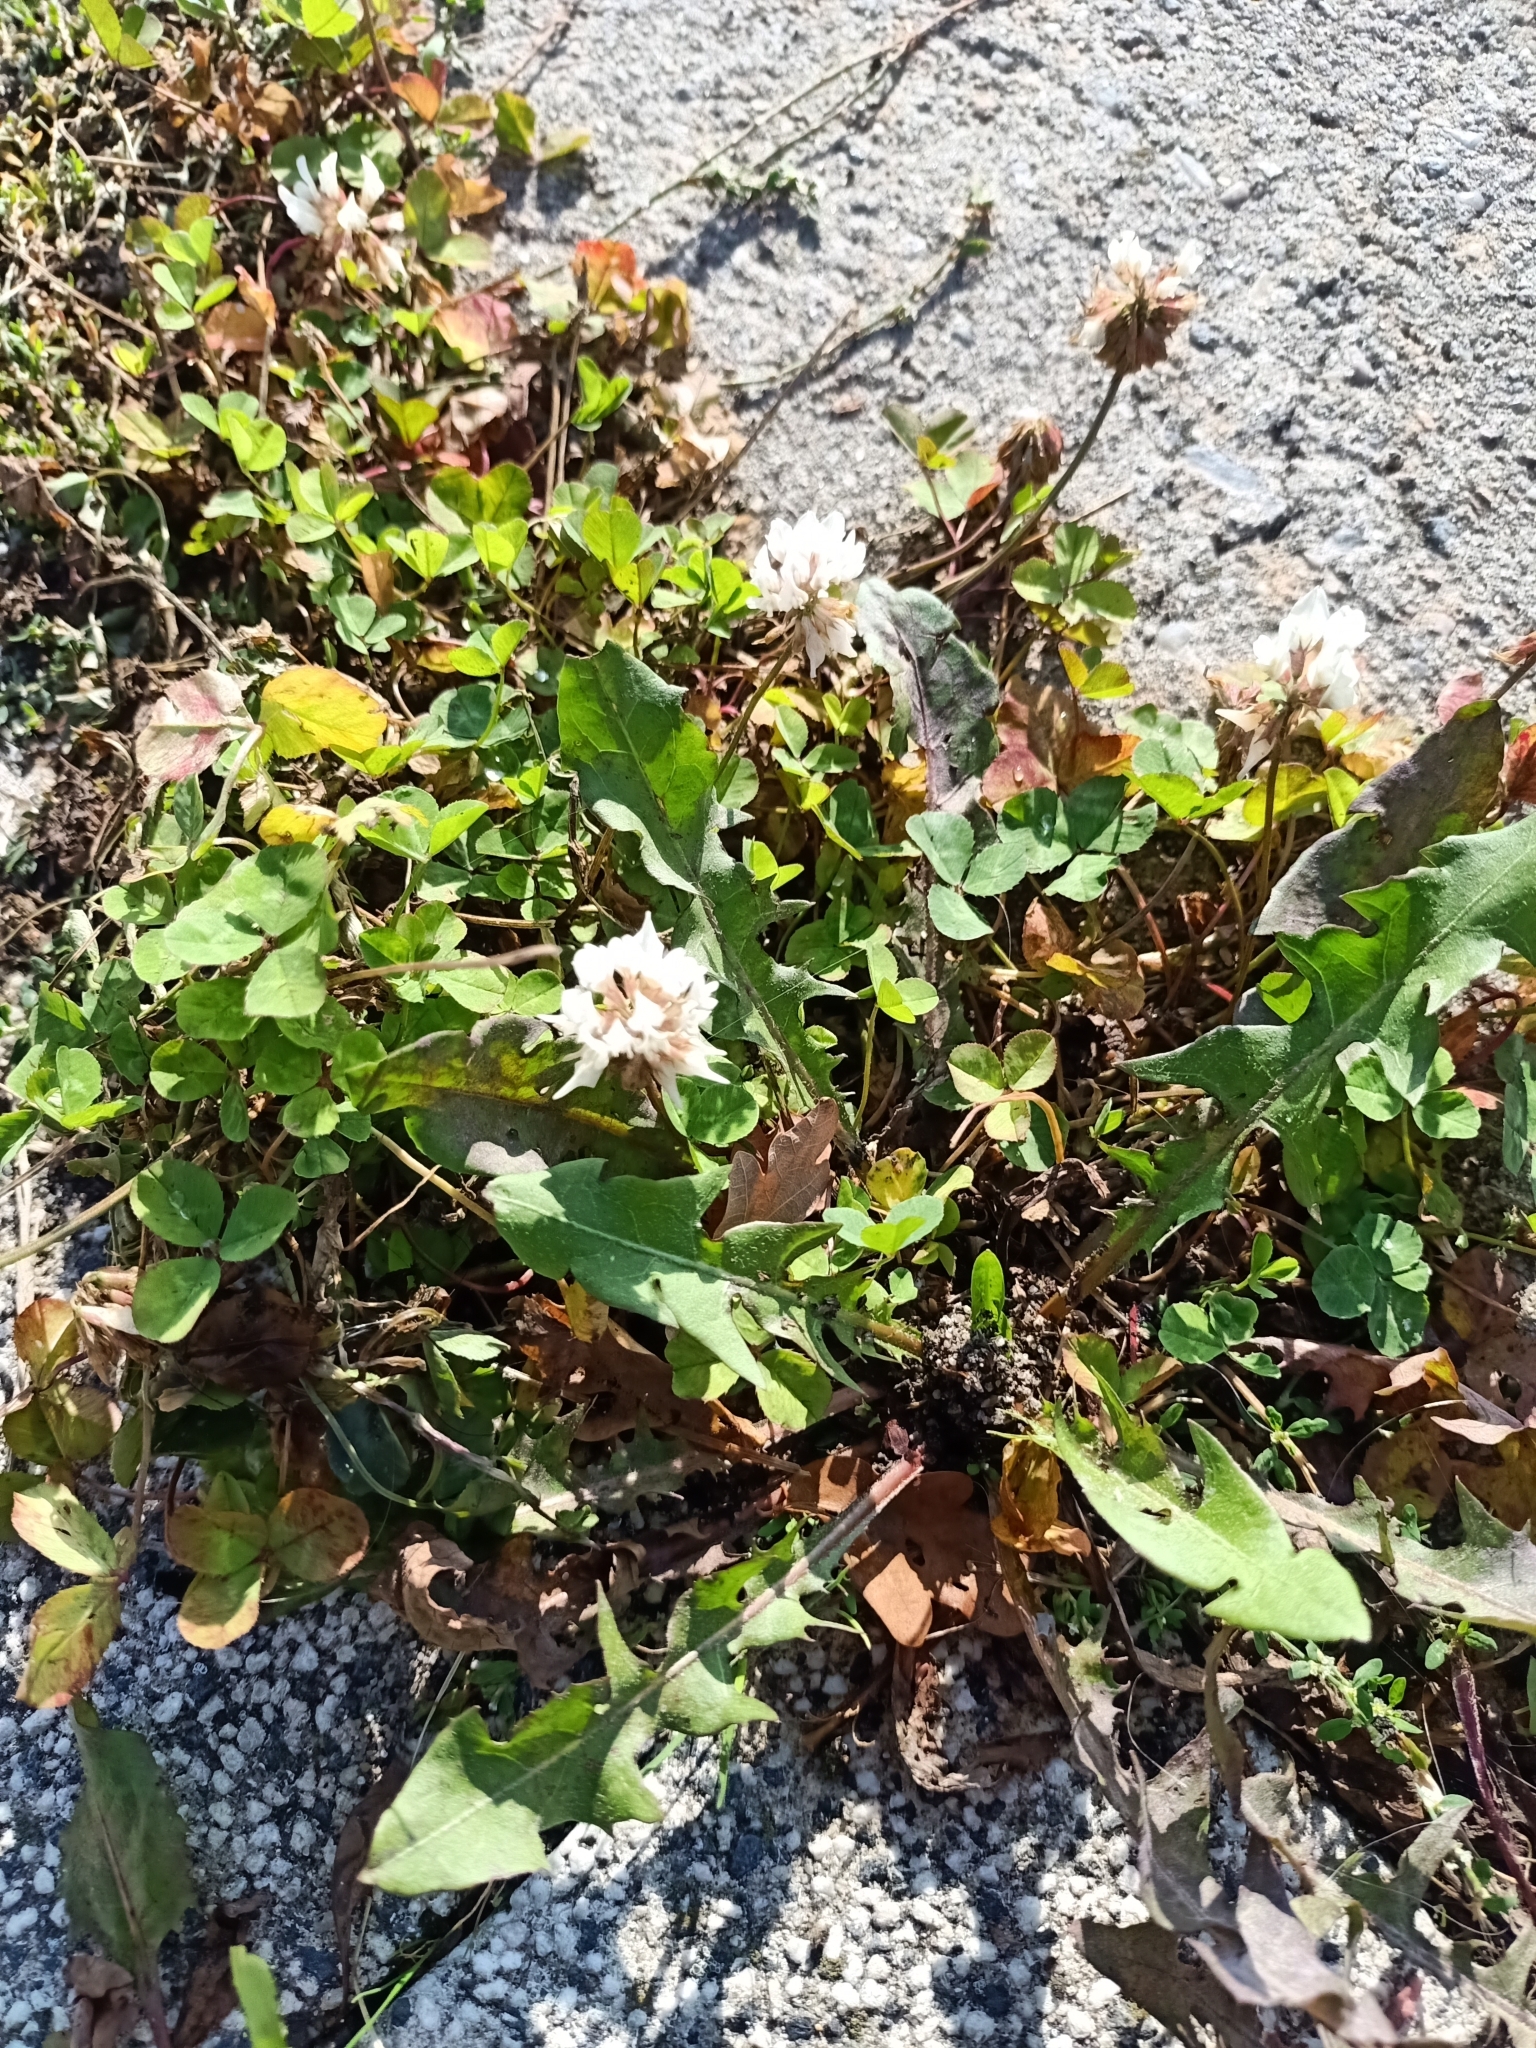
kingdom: Plantae
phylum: Tracheophyta
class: Magnoliopsida
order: Fabales
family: Fabaceae
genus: Trifolium
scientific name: Trifolium repens
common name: White clover
